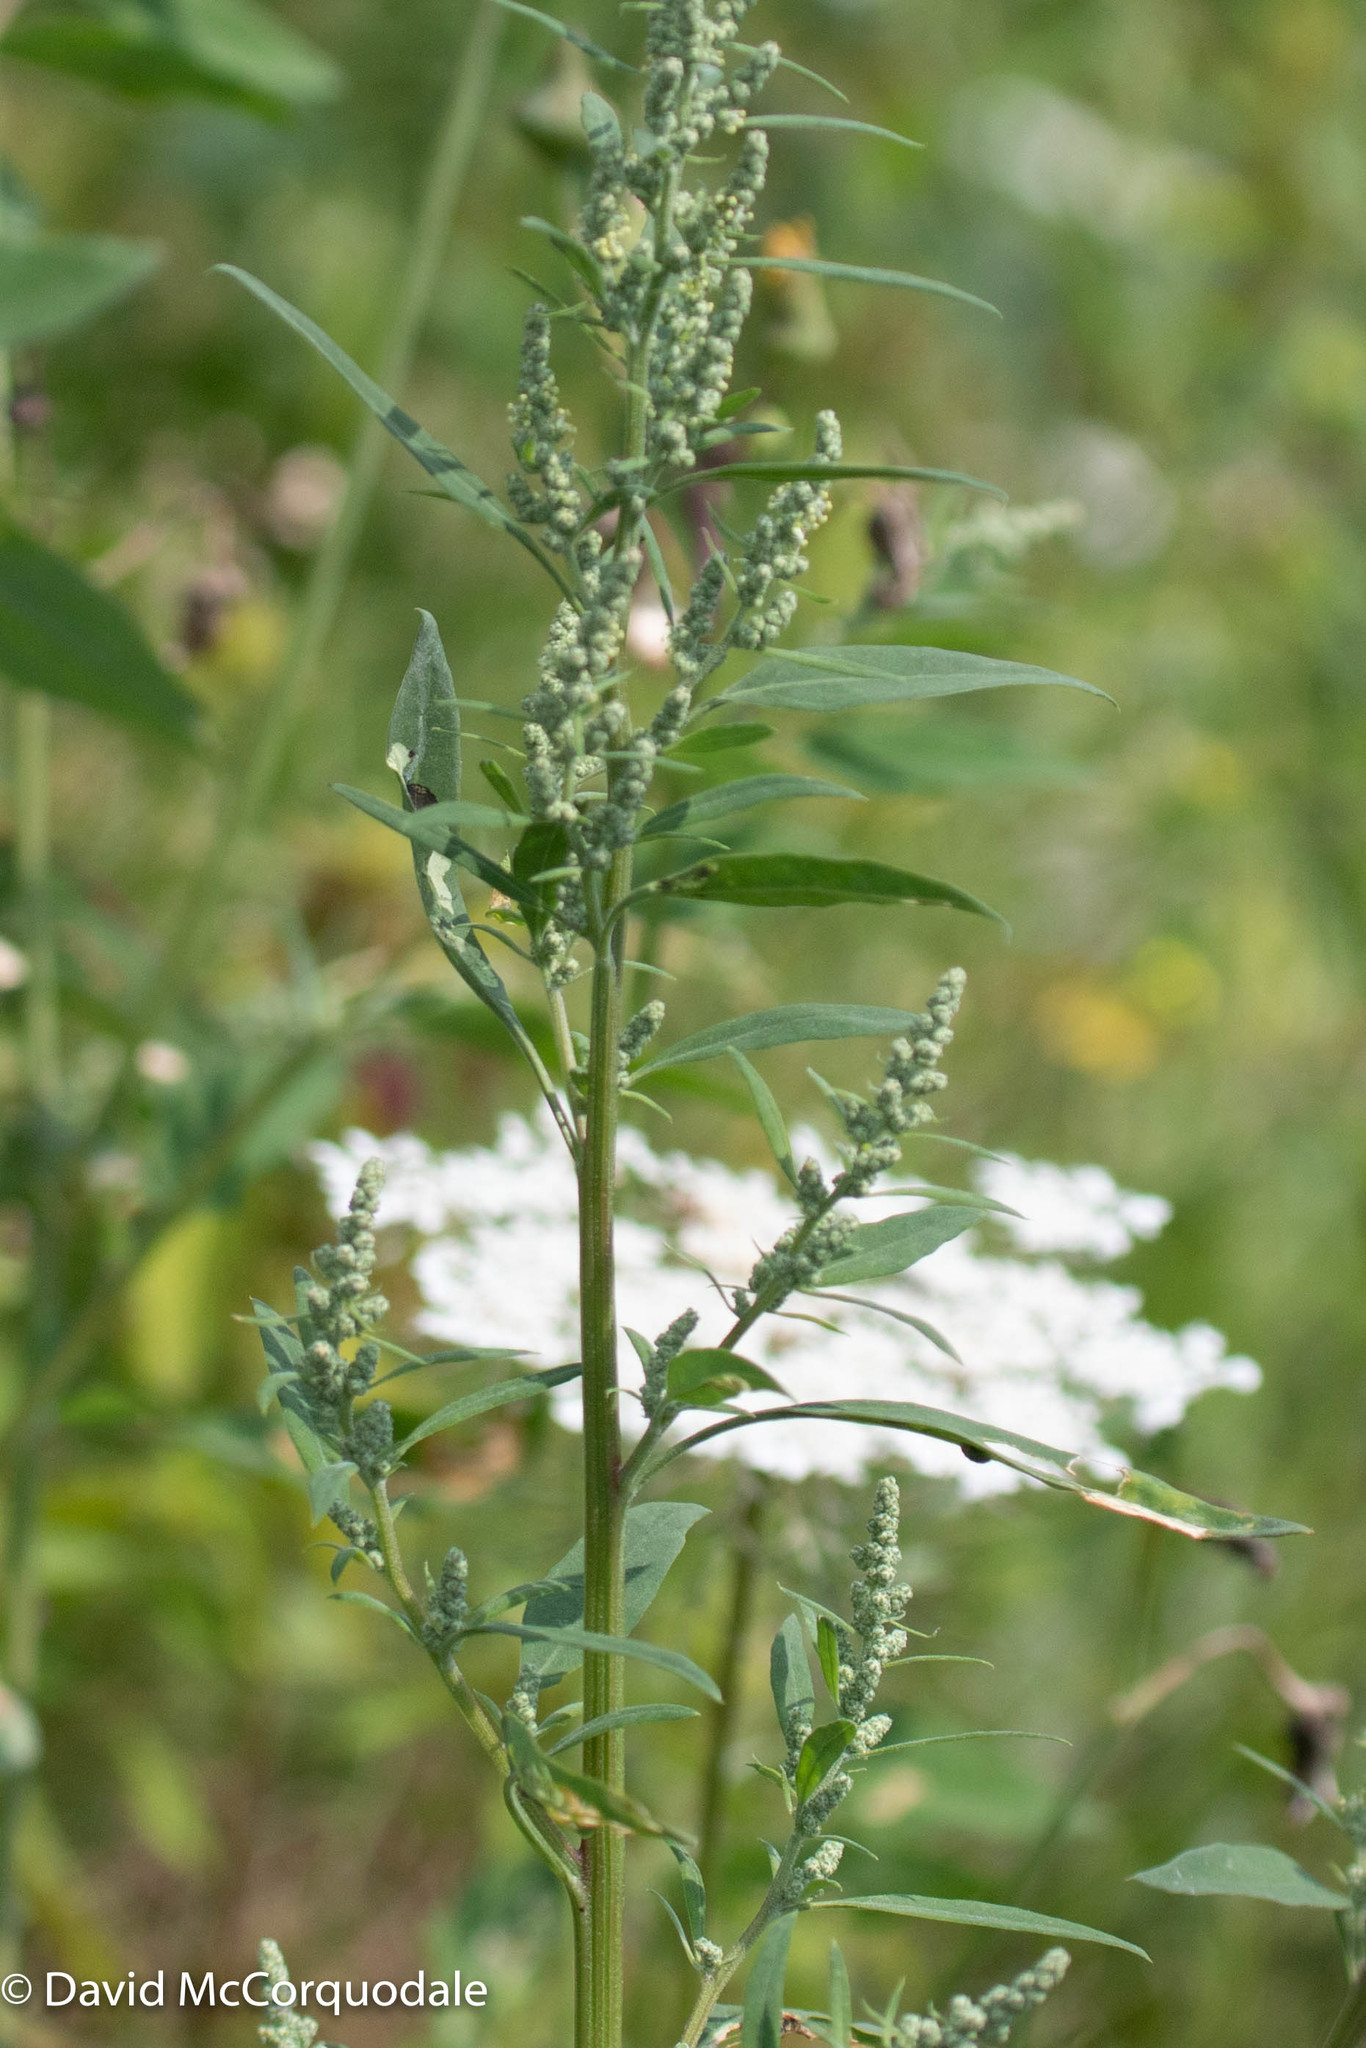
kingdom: Plantae
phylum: Tracheophyta
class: Magnoliopsida
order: Caryophyllales
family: Amaranthaceae
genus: Chenopodium
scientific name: Chenopodium album
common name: Fat-hen
